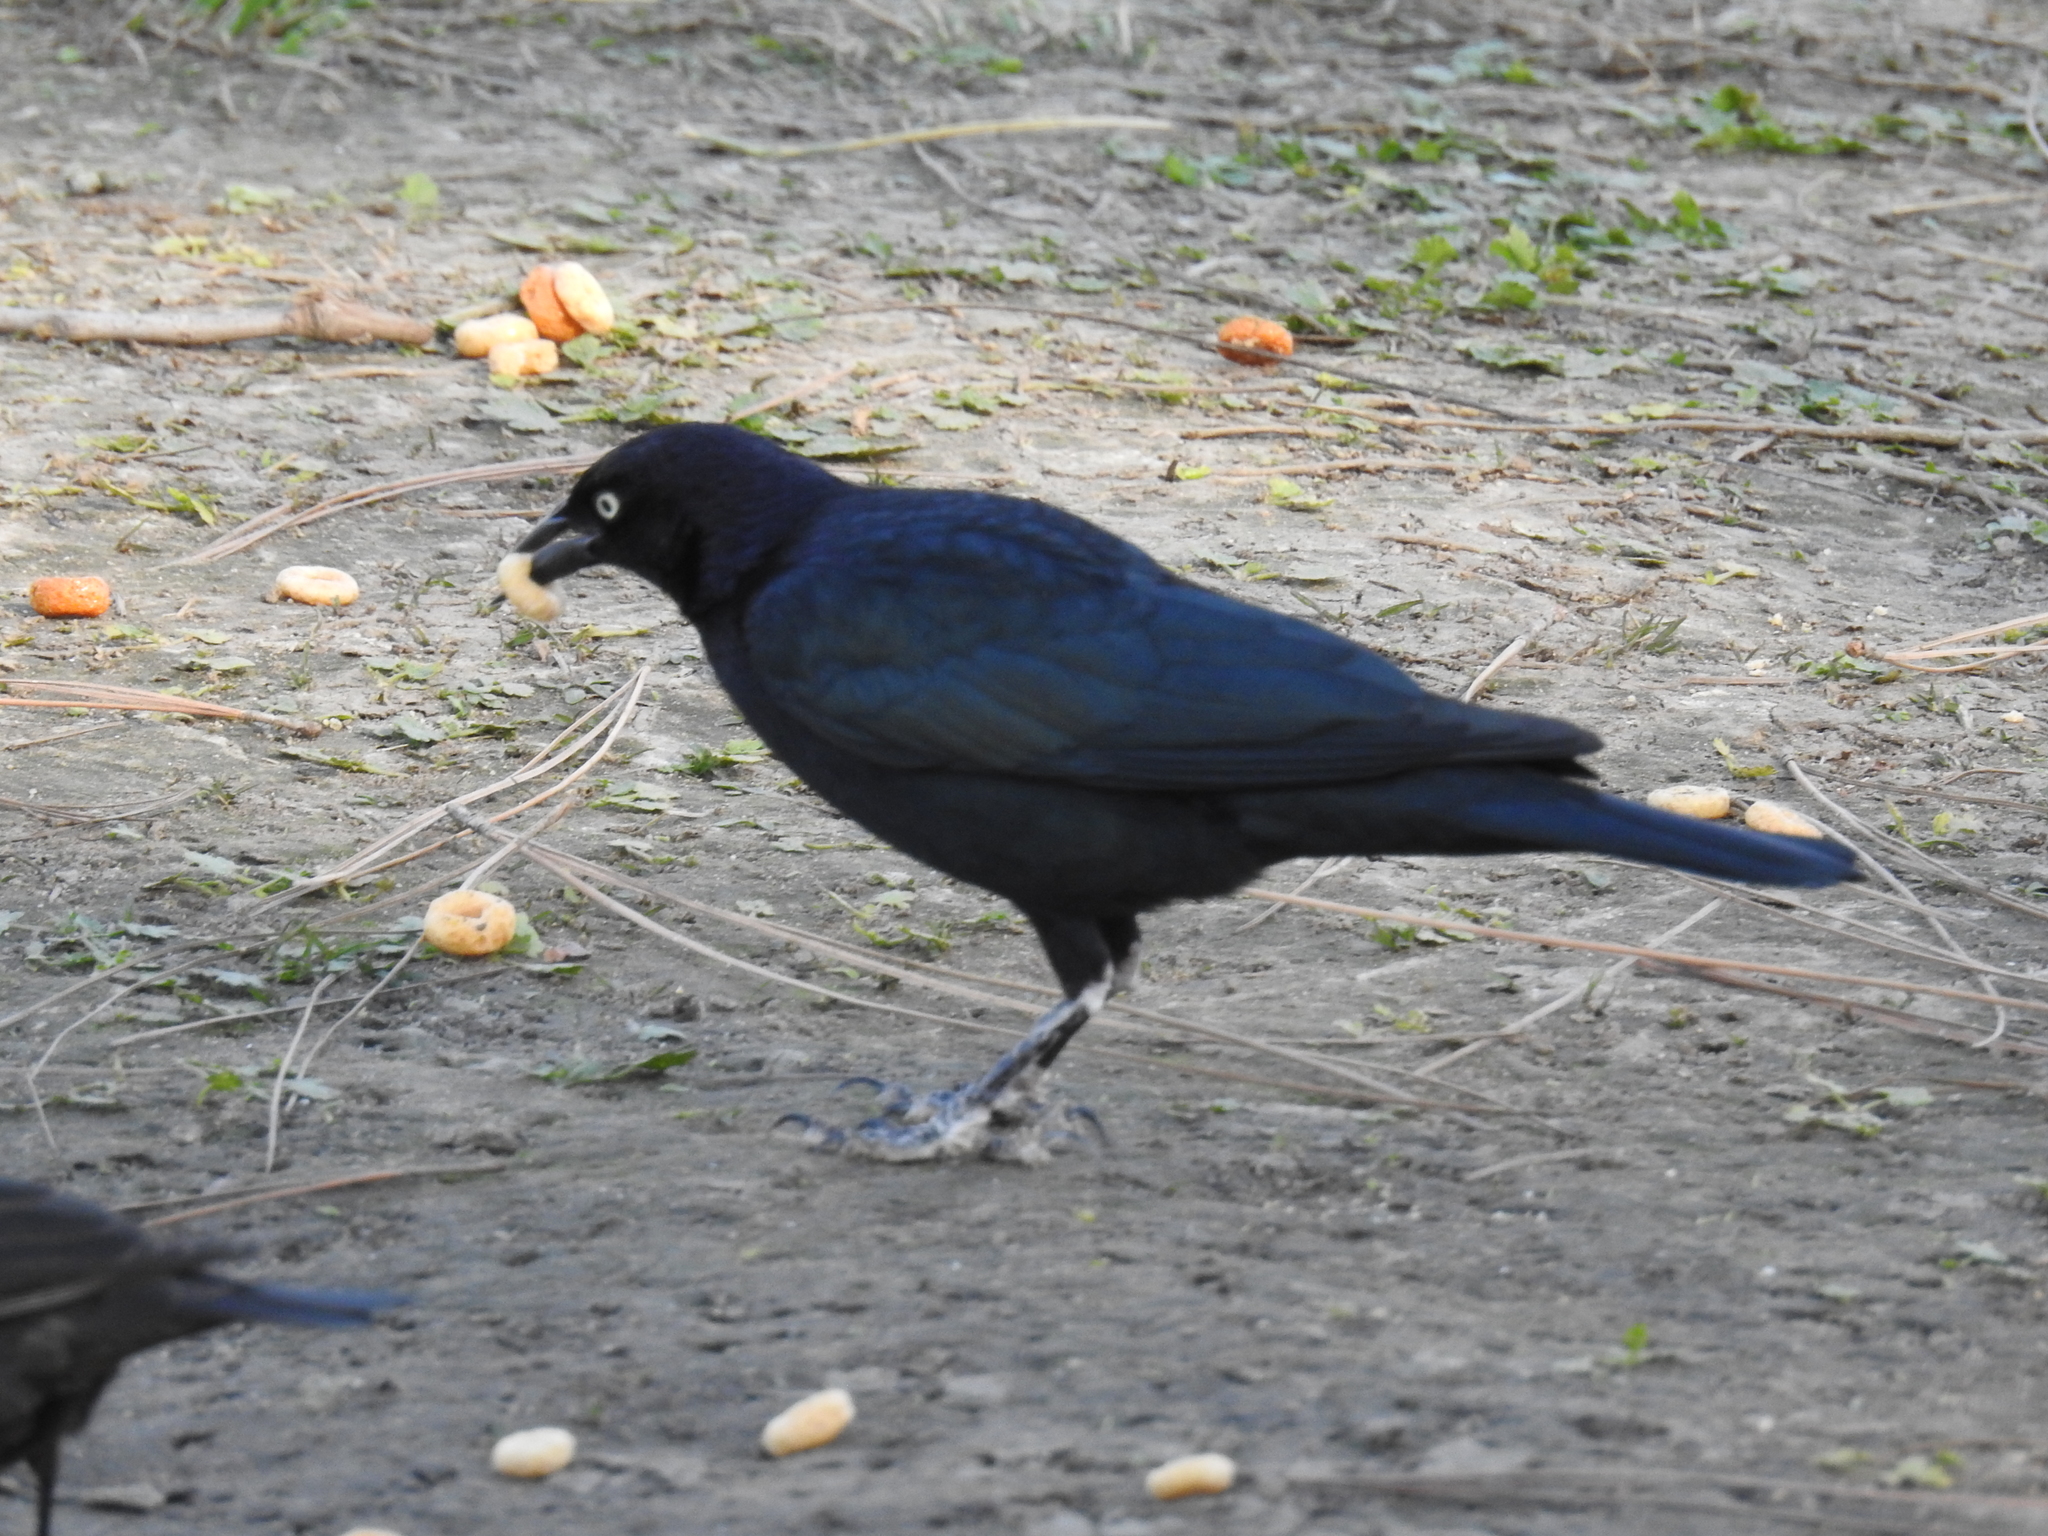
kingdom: Animalia
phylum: Chordata
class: Aves
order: Passeriformes
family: Icteridae
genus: Euphagus
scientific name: Euphagus cyanocephalus
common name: Brewer's blackbird
